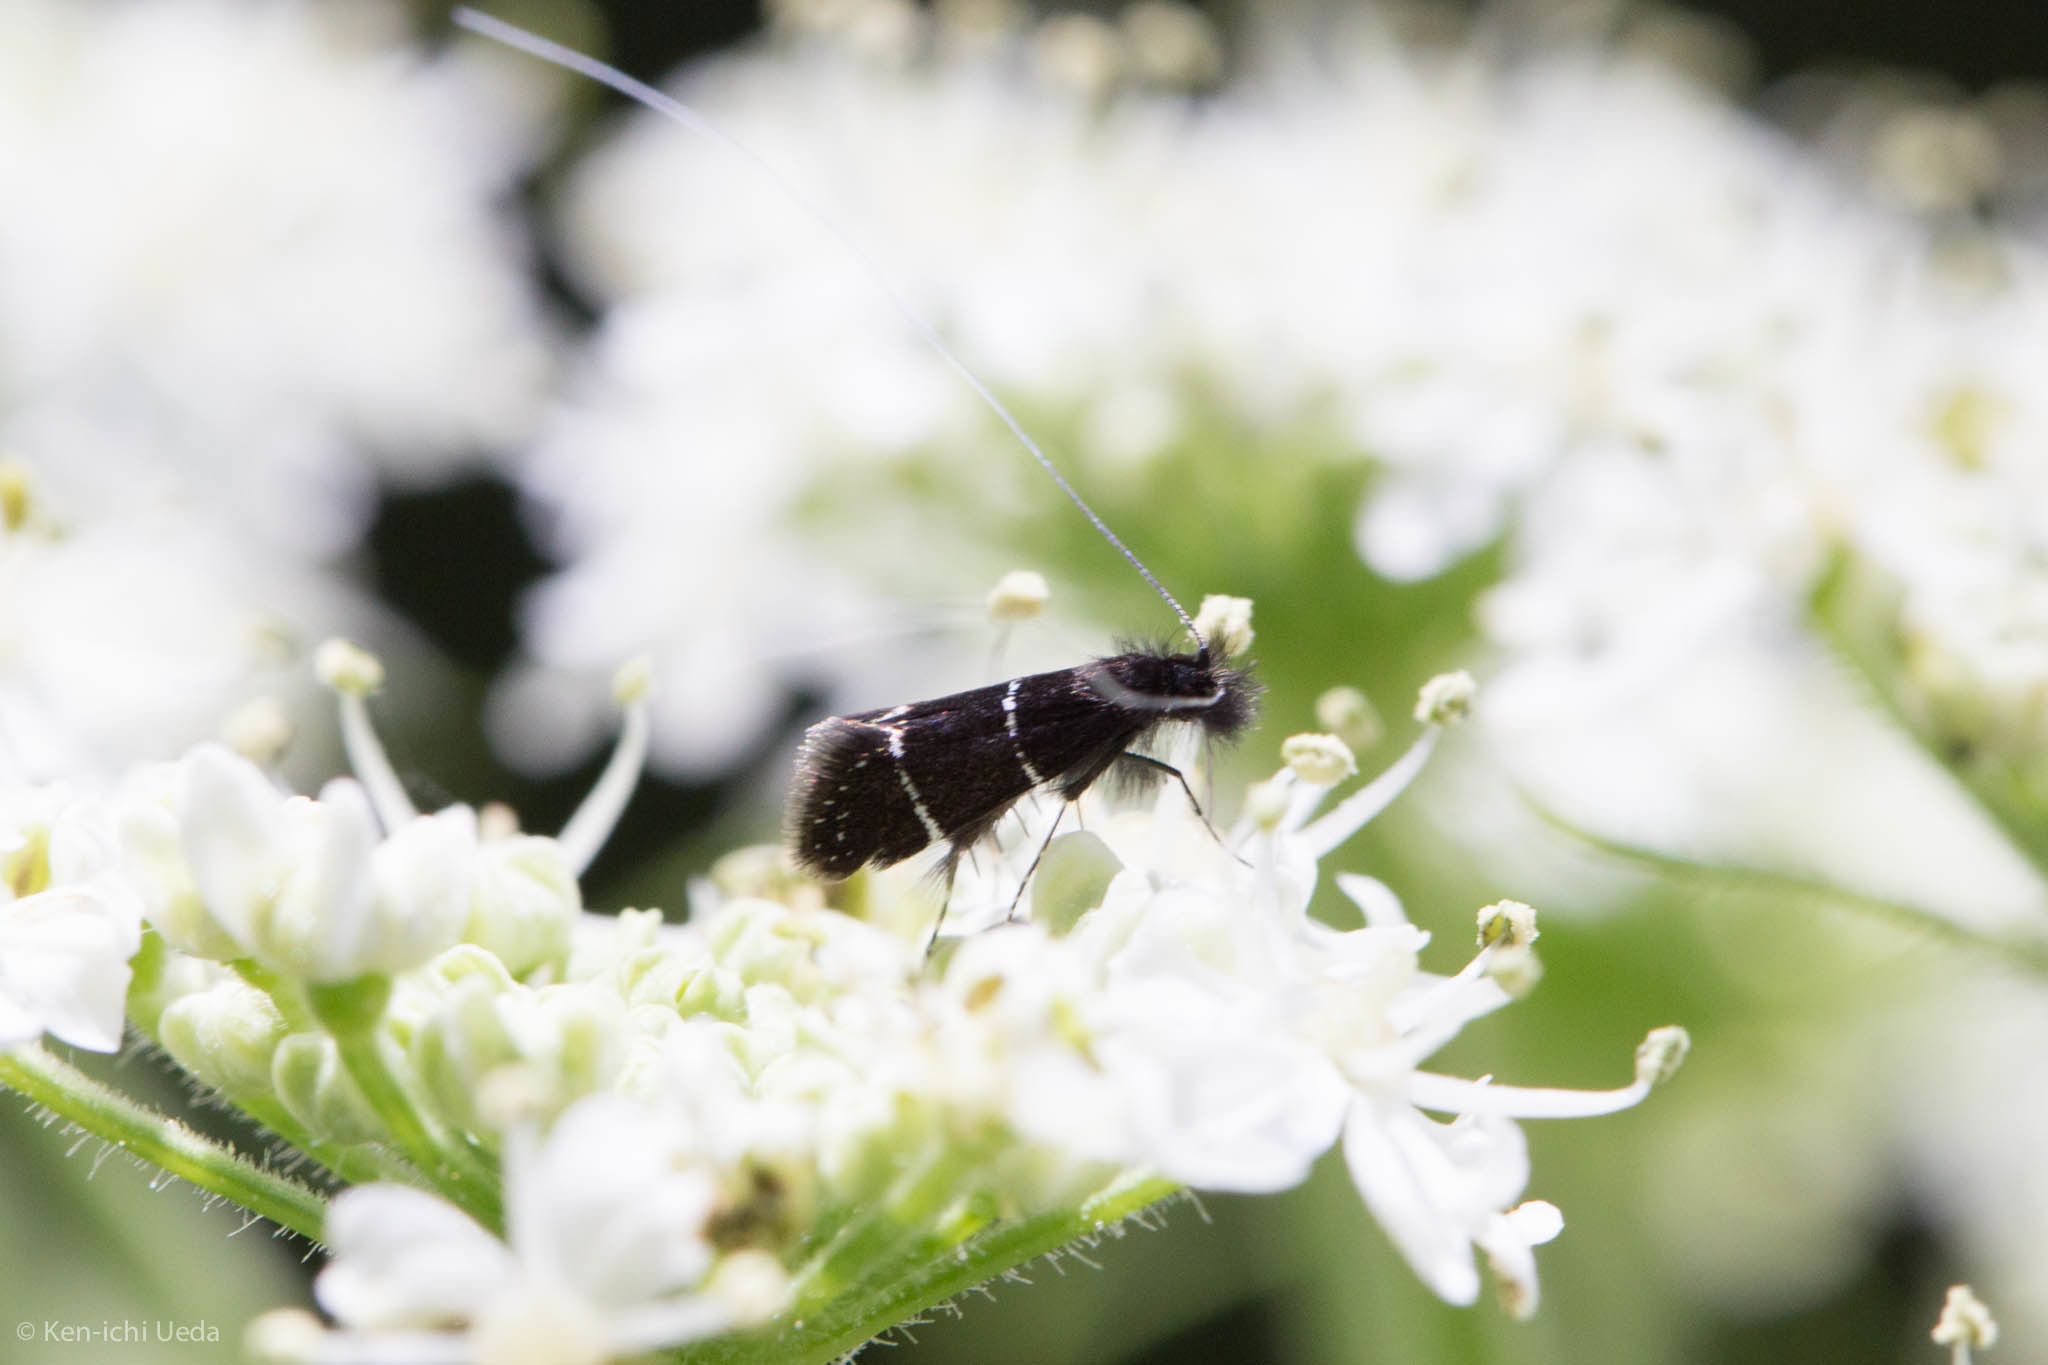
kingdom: Animalia
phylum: Arthropoda
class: Insecta
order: Lepidoptera
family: Adelidae
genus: Adela
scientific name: Adela septentrionella
